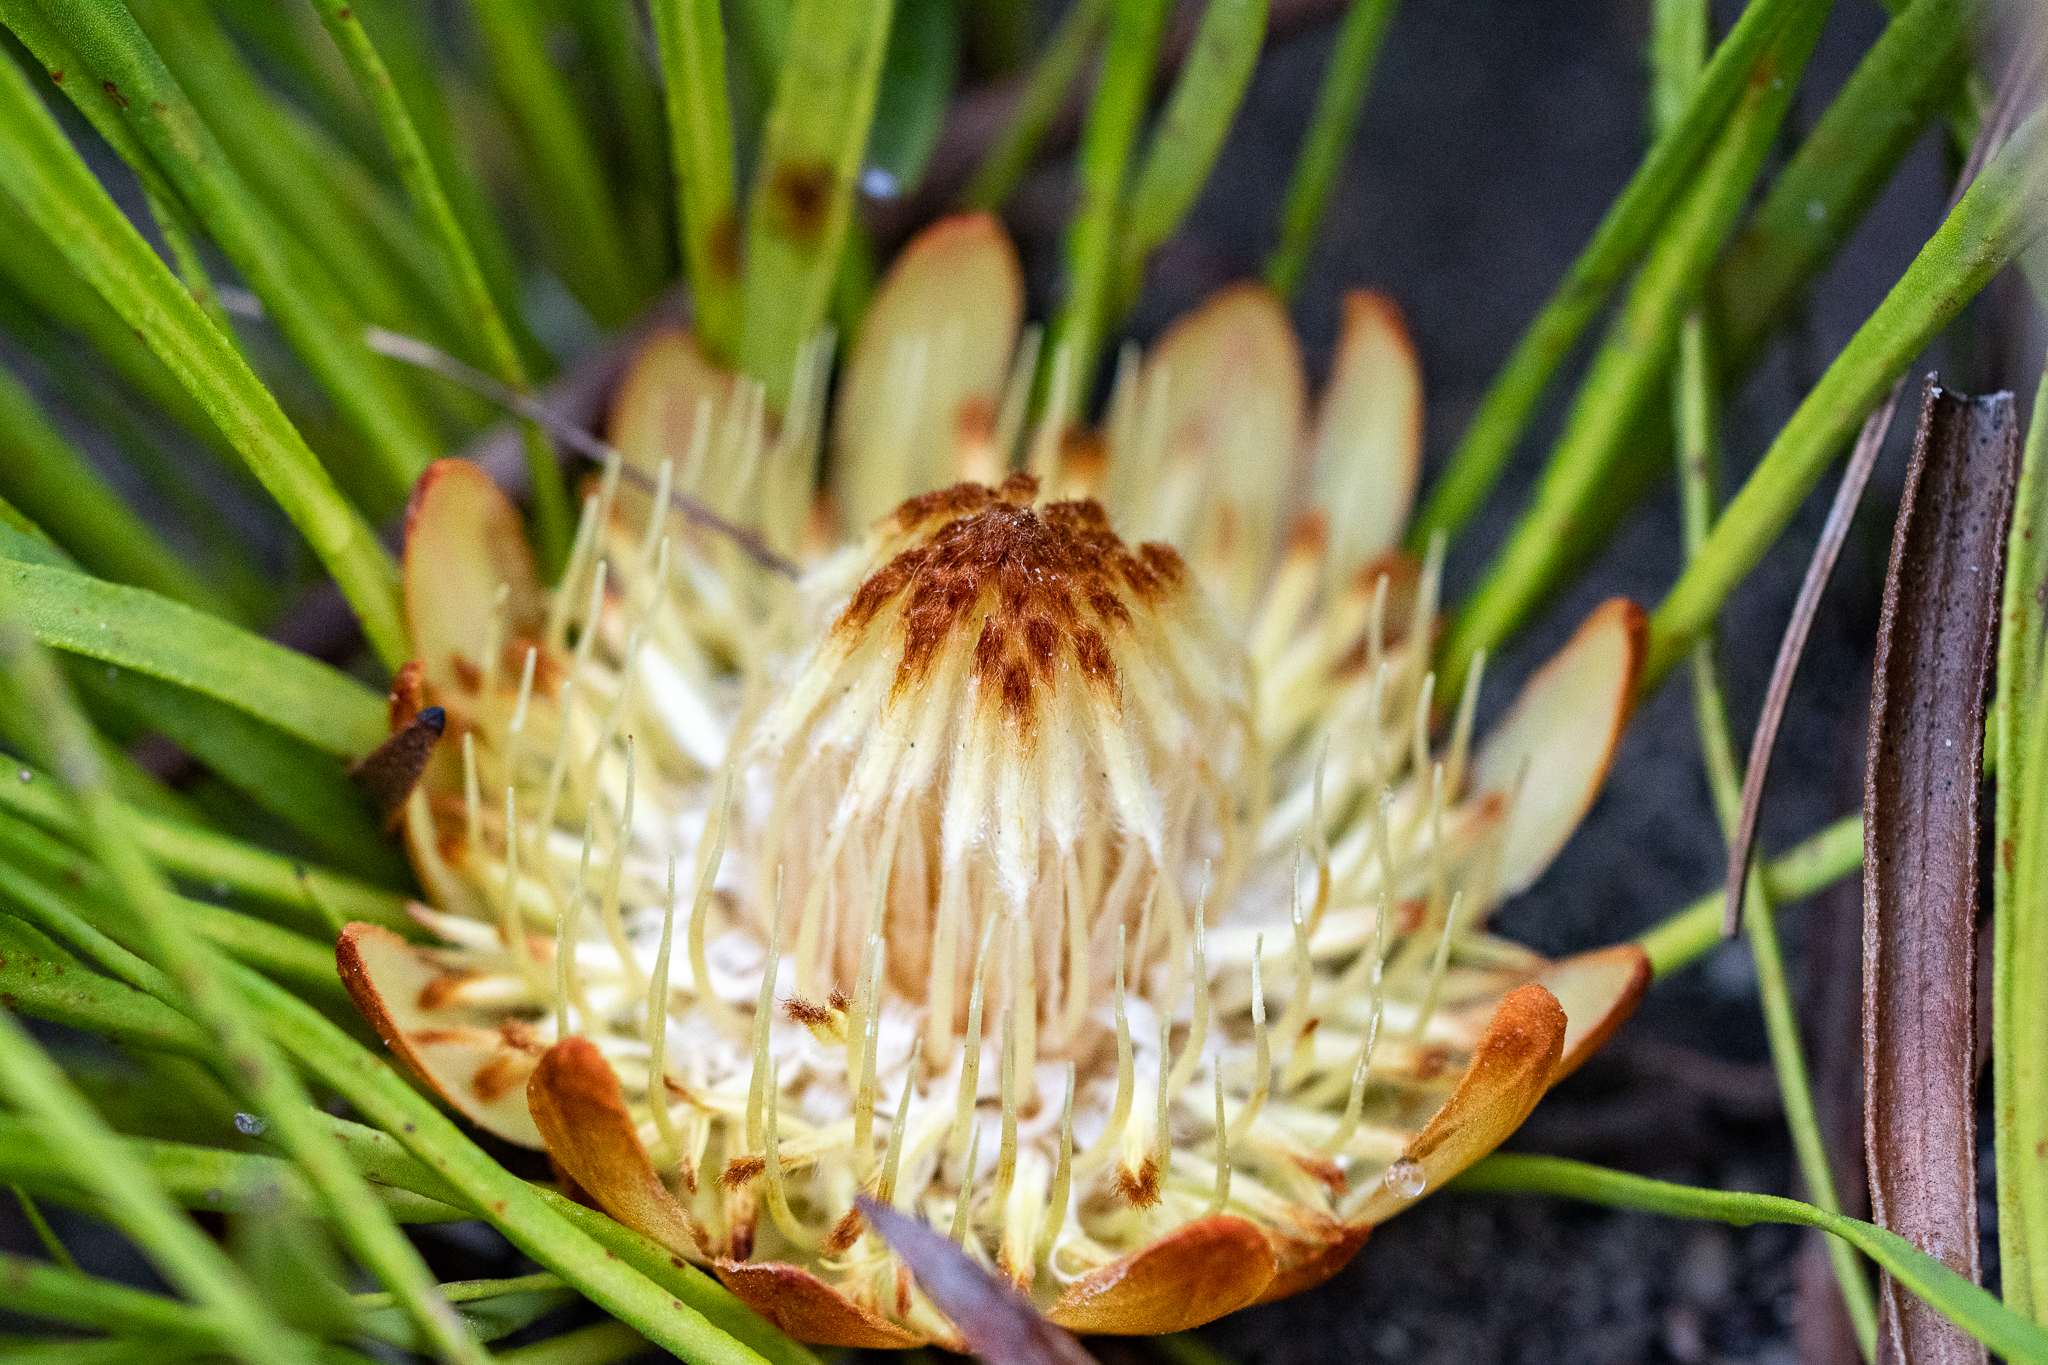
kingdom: Plantae
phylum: Tracheophyta
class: Magnoliopsida
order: Proteales
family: Proteaceae
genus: Protea
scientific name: Protea scabra
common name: Sandpaper-leaf sugarbush
